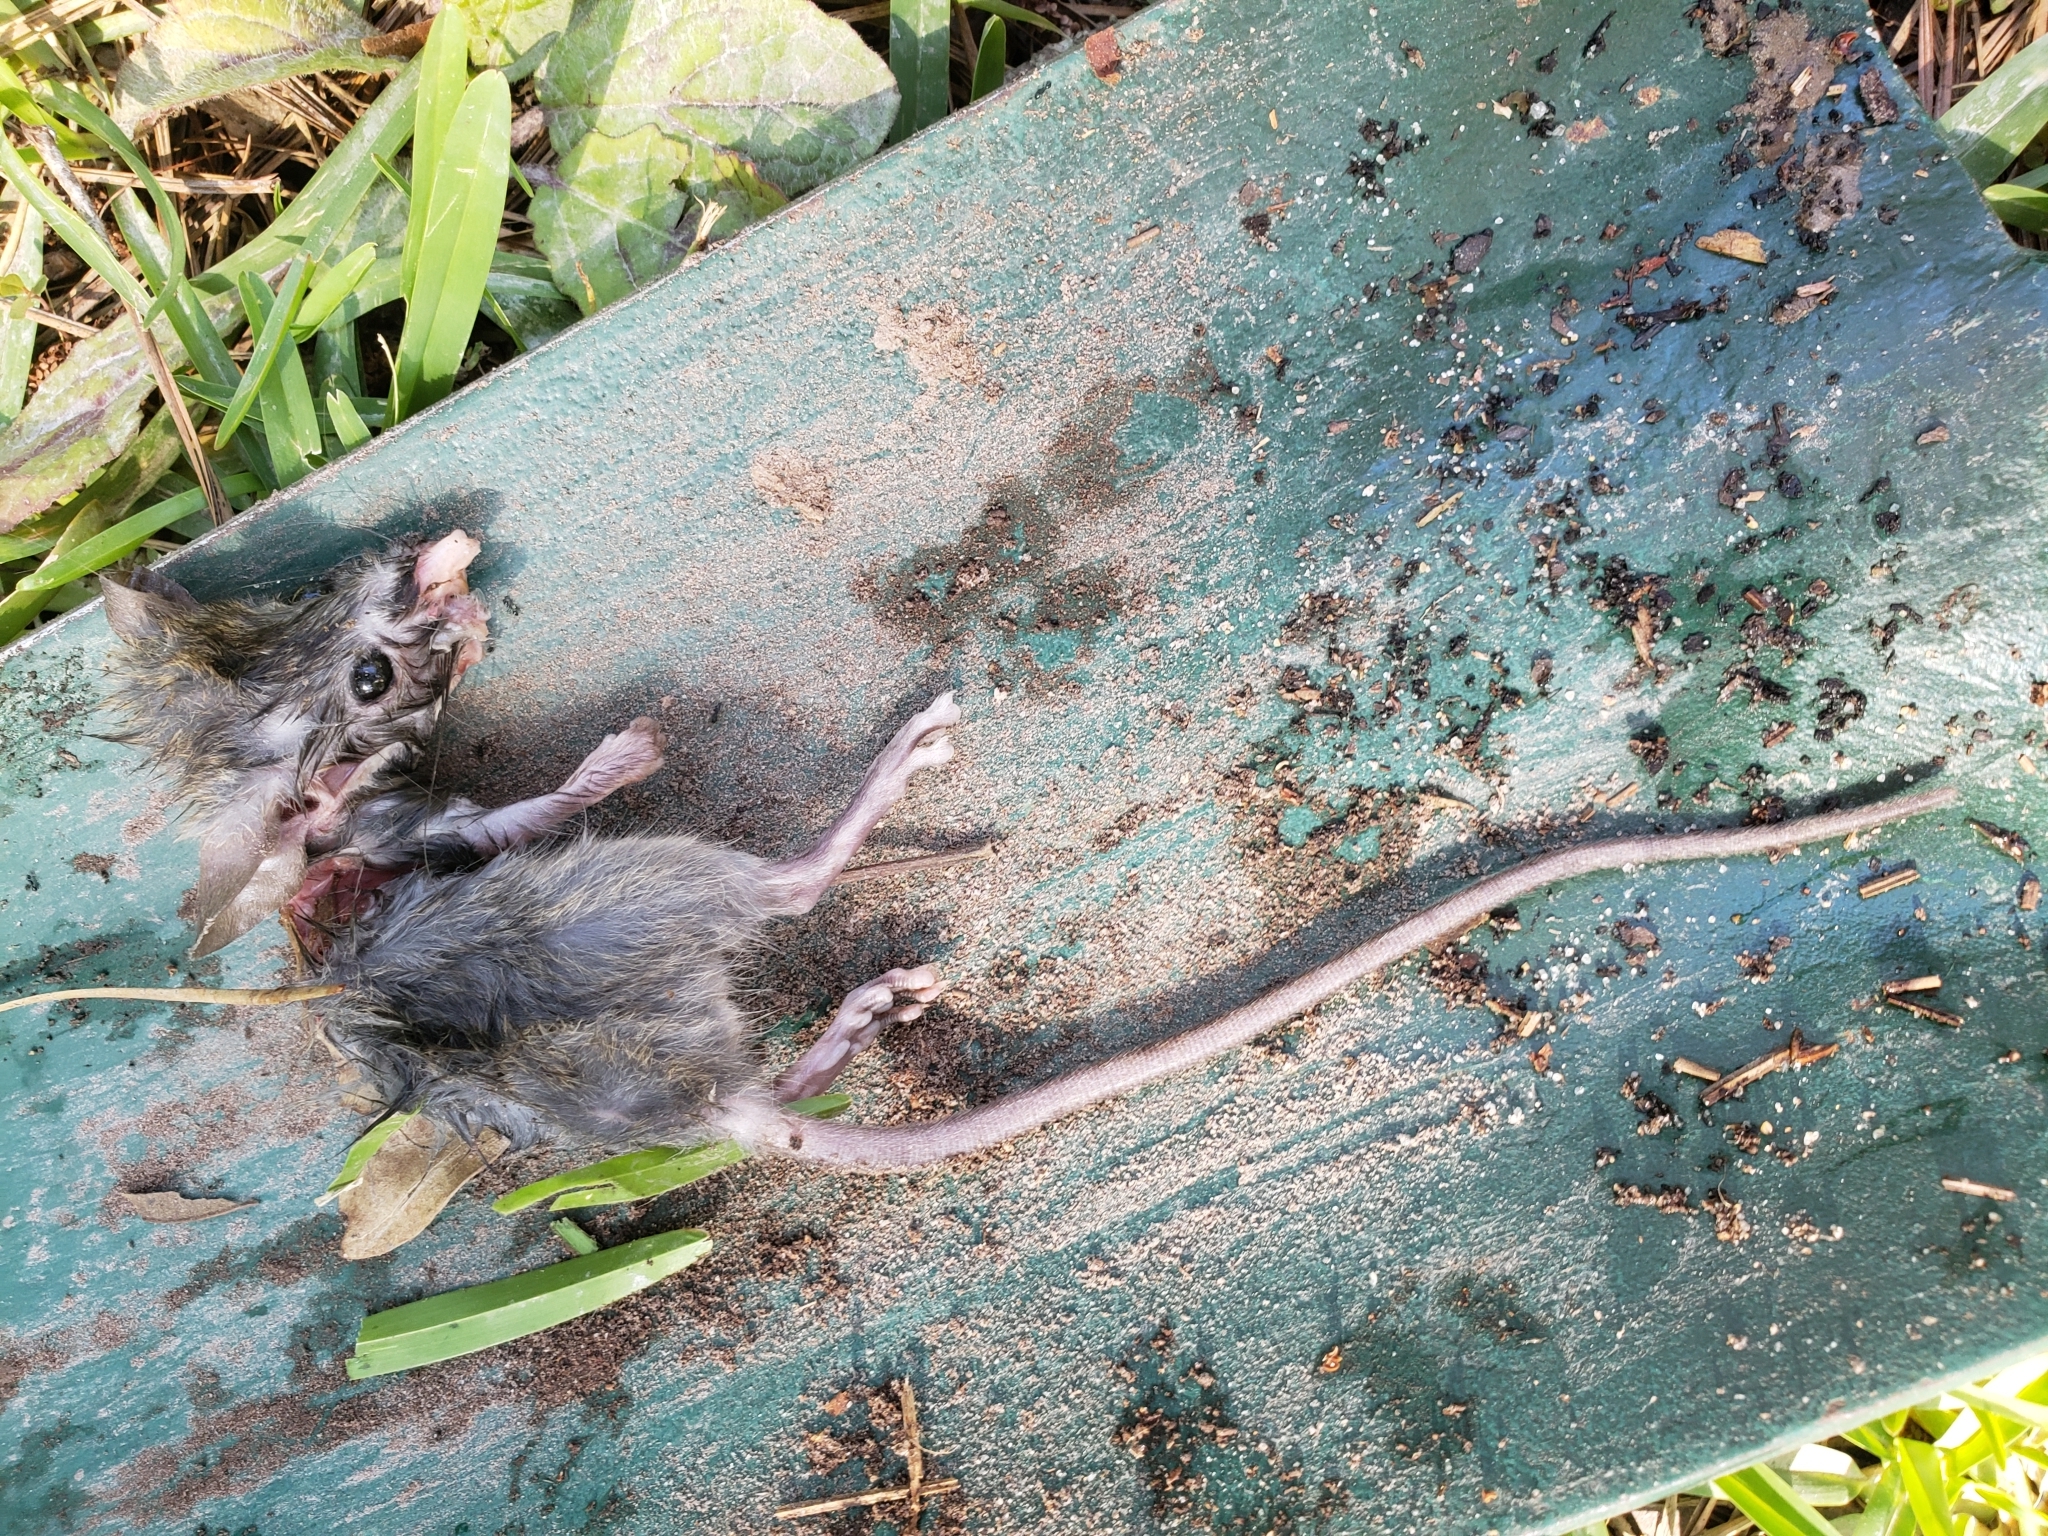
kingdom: Animalia
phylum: Chordata
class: Mammalia
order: Rodentia
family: Muridae
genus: Rattus
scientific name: Rattus rattus
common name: Black rat
